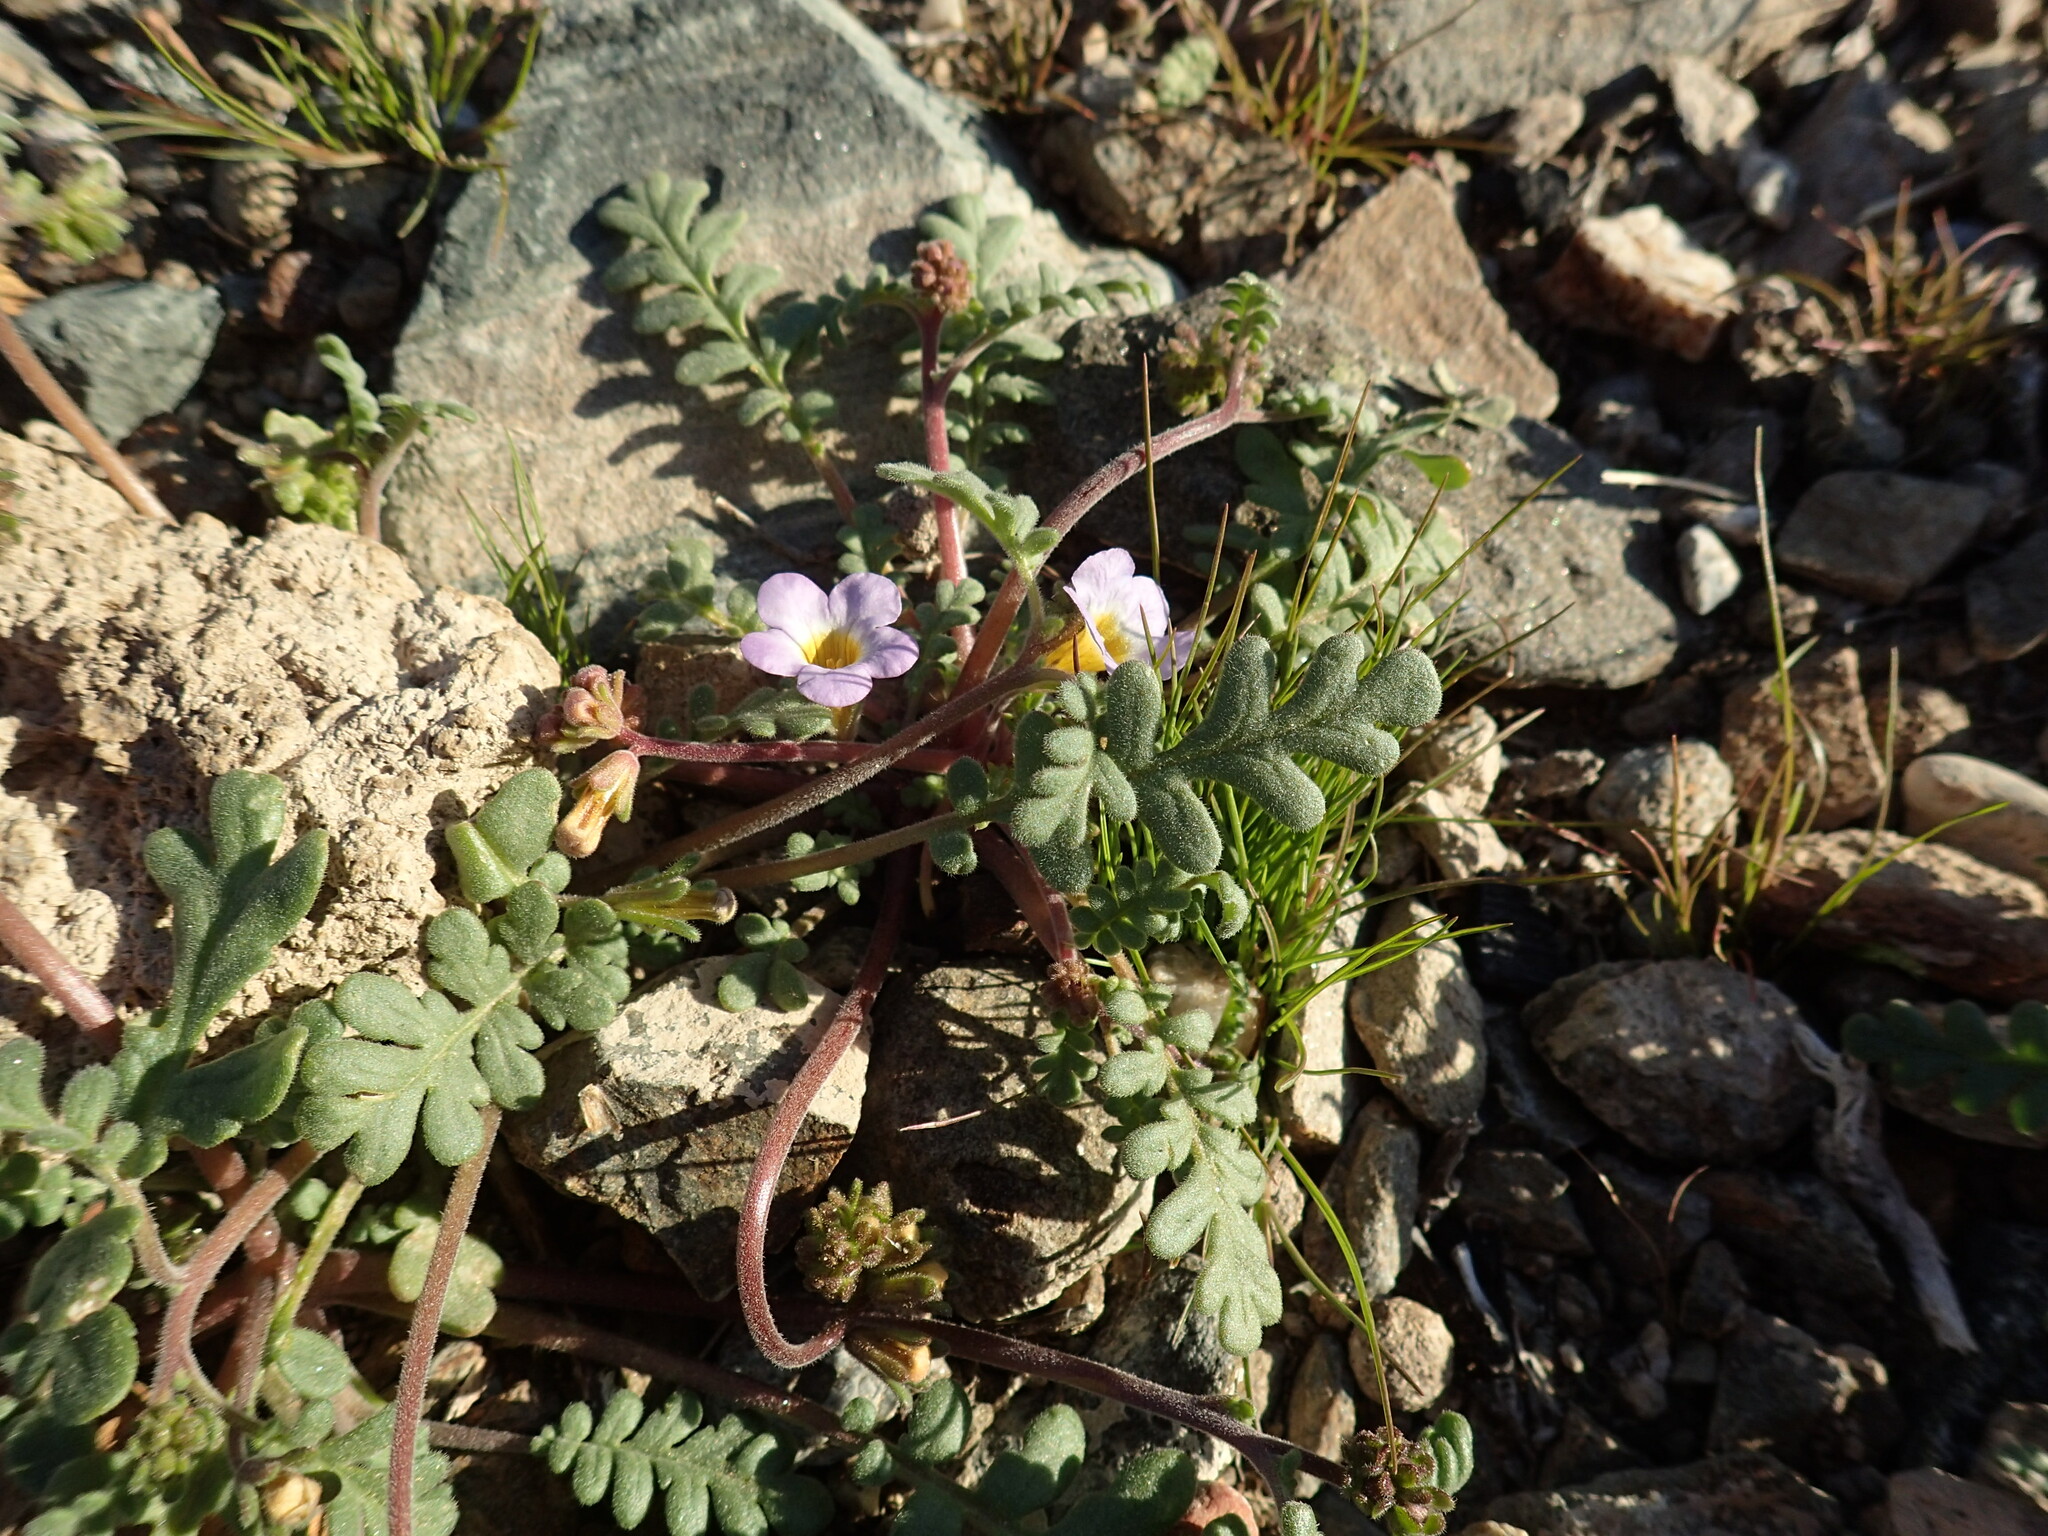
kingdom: Plantae
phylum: Tracheophyta
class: Magnoliopsida
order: Boraginales
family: Hydrophyllaceae
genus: Phacelia
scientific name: Phacelia fremontii
